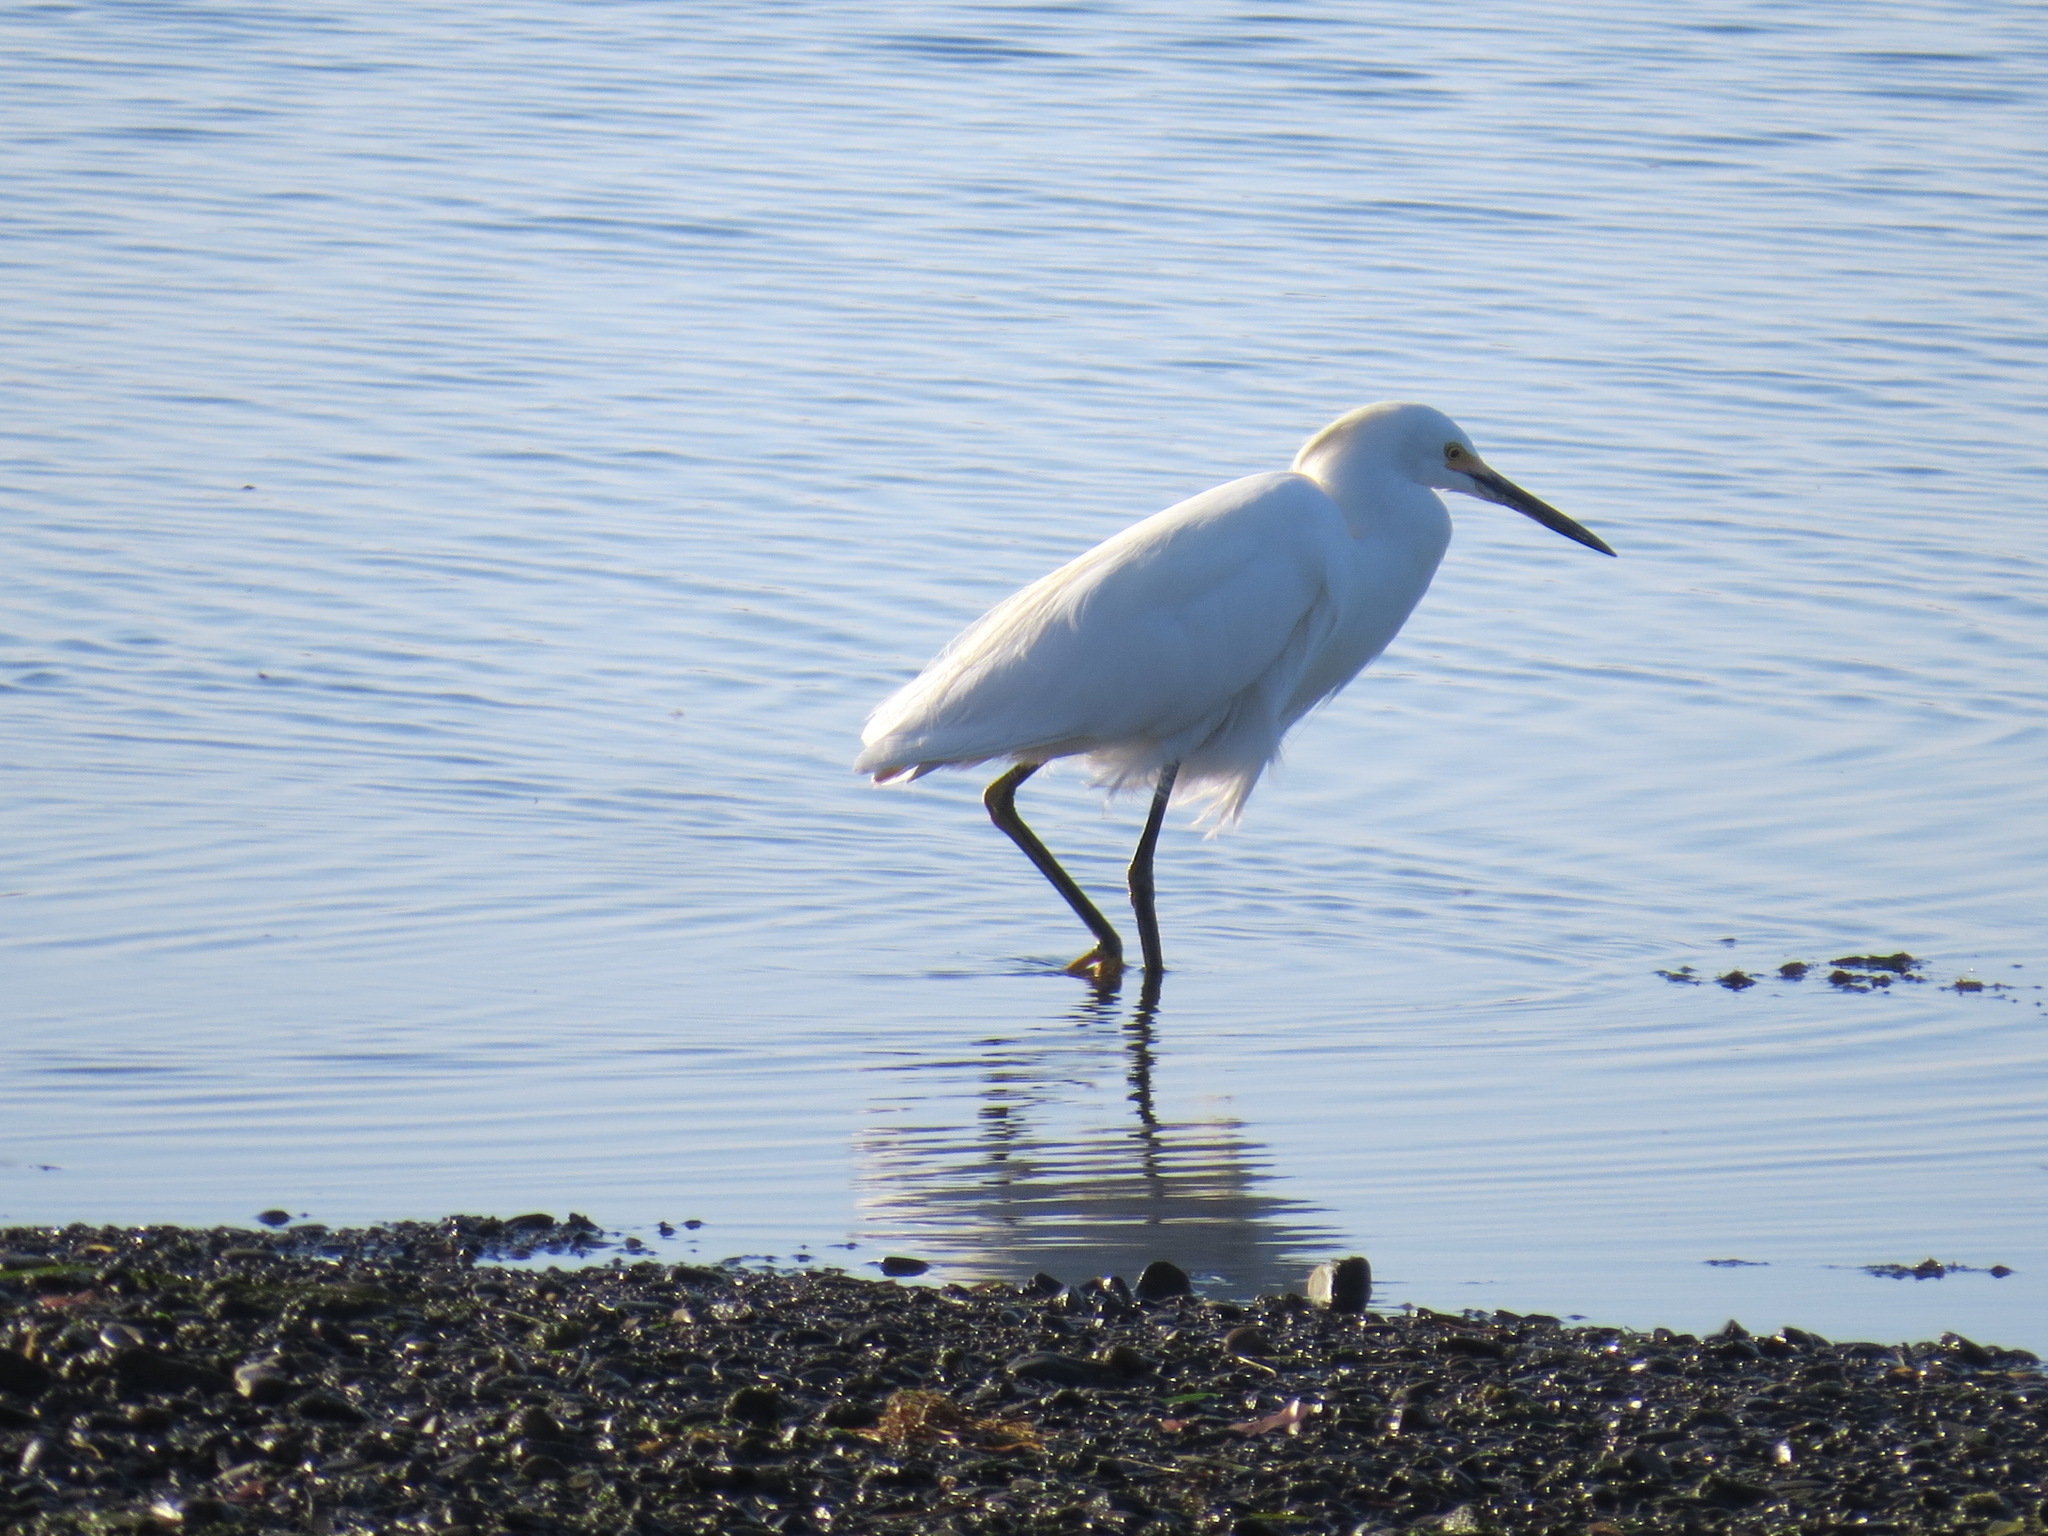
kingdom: Animalia
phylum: Chordata
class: Aves
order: Pelecaniformes
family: Ardeidae
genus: Egretta
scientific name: Egretta thula
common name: Snowy egret
